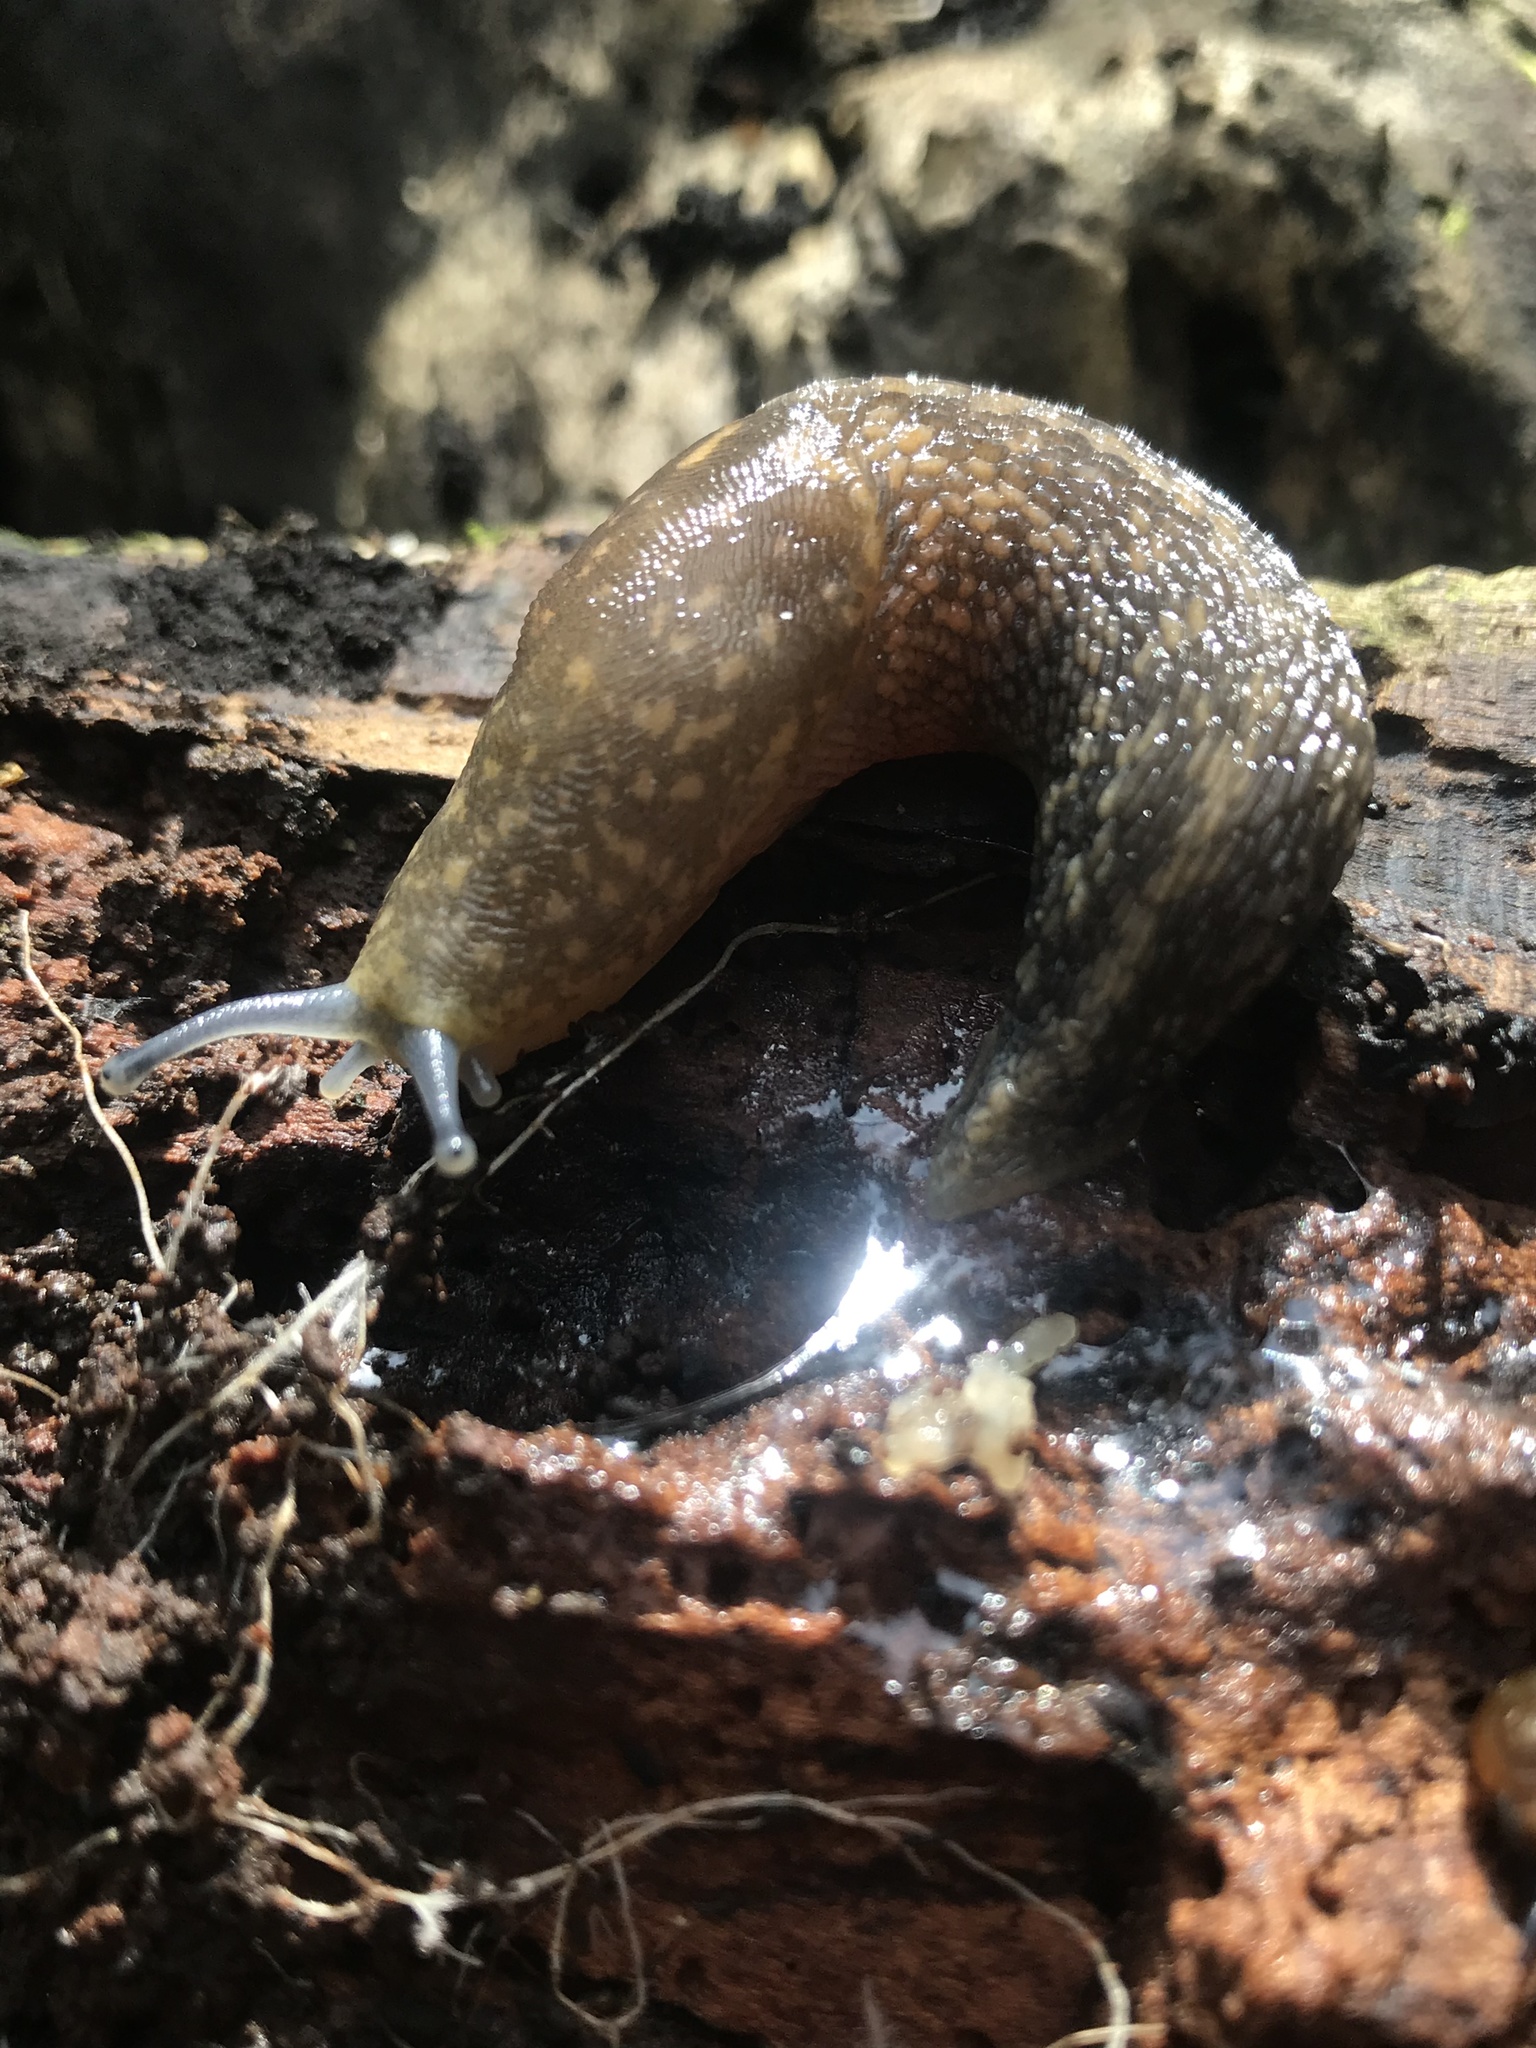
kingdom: Animalia
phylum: Mollusca
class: Gastropoda
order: Stylommatophora
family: Limacidae
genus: Limacus
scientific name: Limacus flavus
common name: Yellow gardenslug
